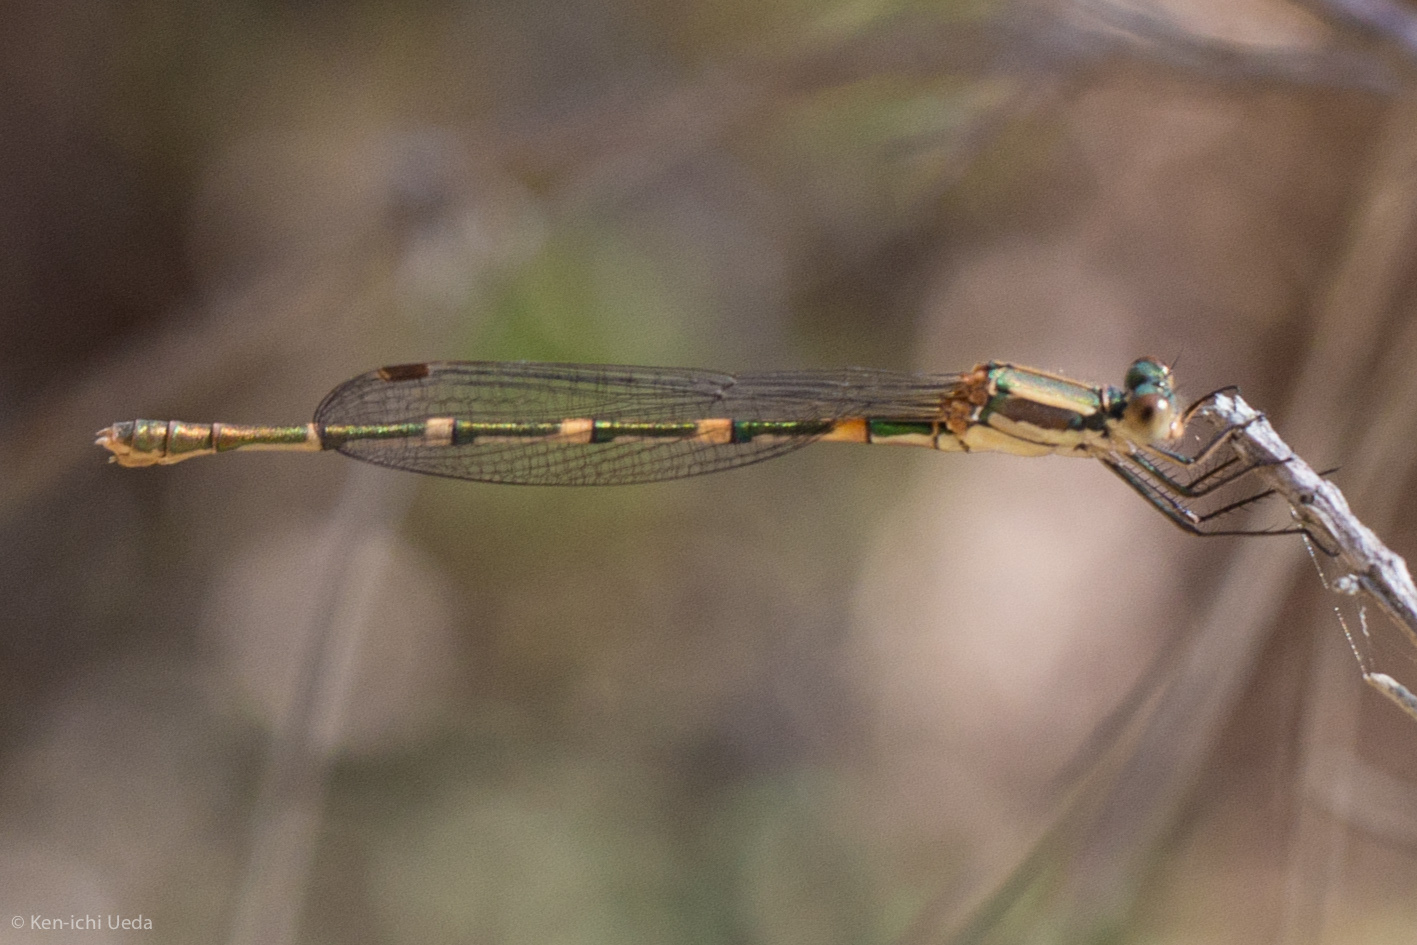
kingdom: Animalia
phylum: Arthropoda
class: Insecta
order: Odonata
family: Lestidae
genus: Austrolestes
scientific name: Austrolestes leda
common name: Wandering ringtail
